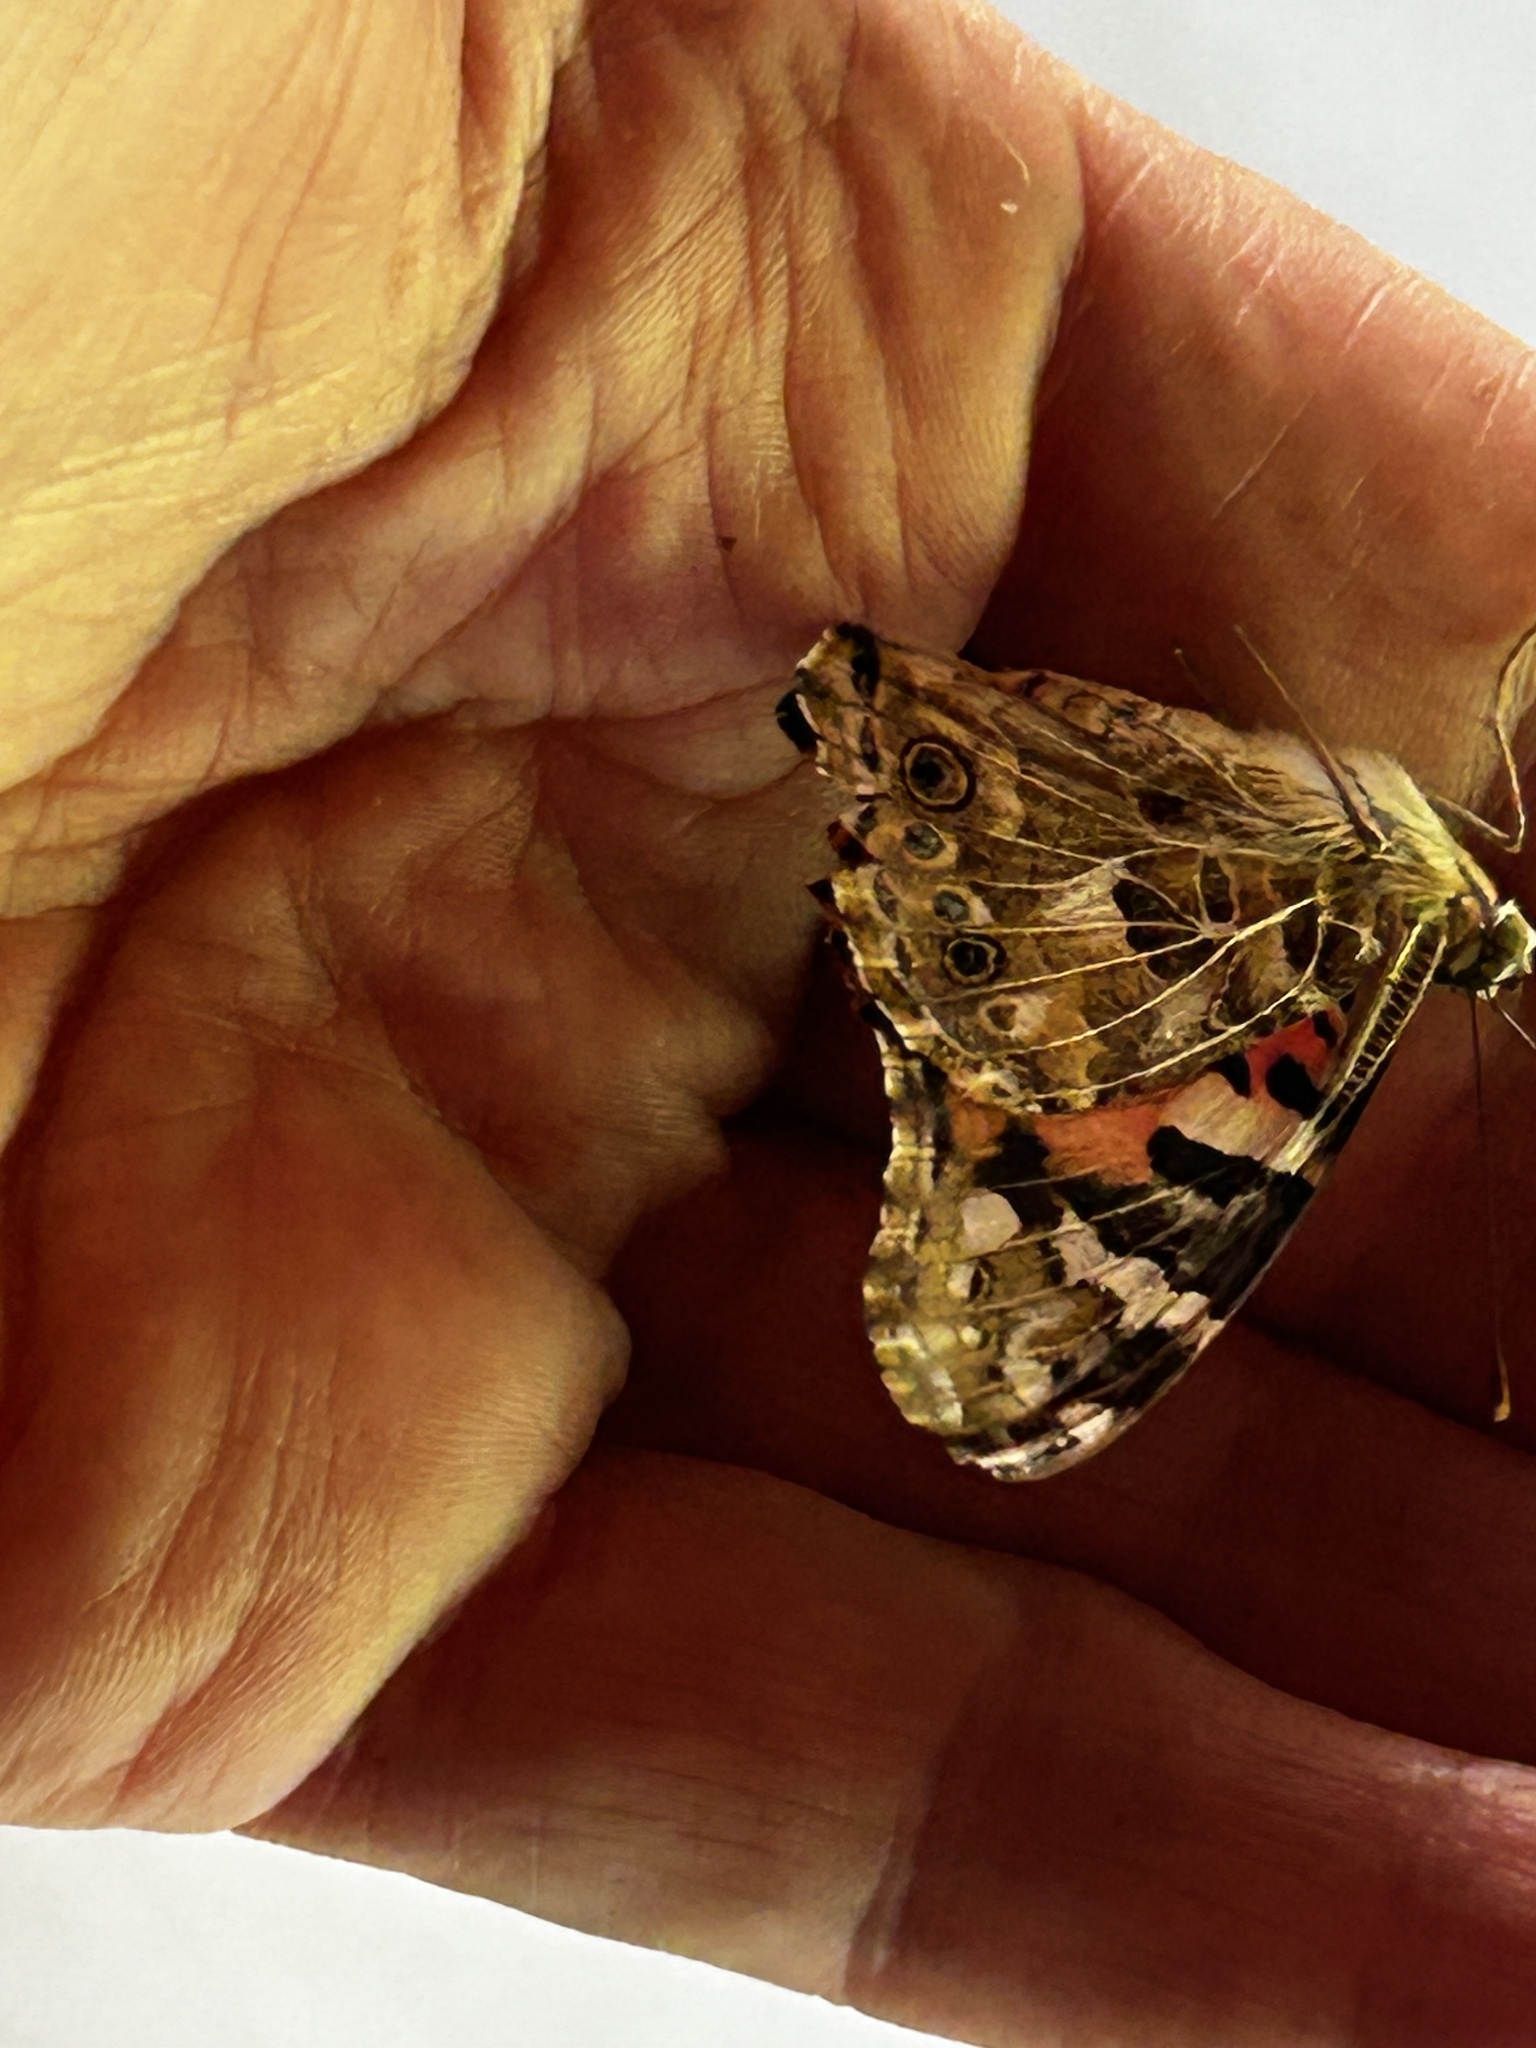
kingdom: Animalia
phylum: Arthropoda
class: Insecta
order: Lepidoptera
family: Nymphalidae
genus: Vanessa
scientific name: Vanessa cardui
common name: Painted lady
